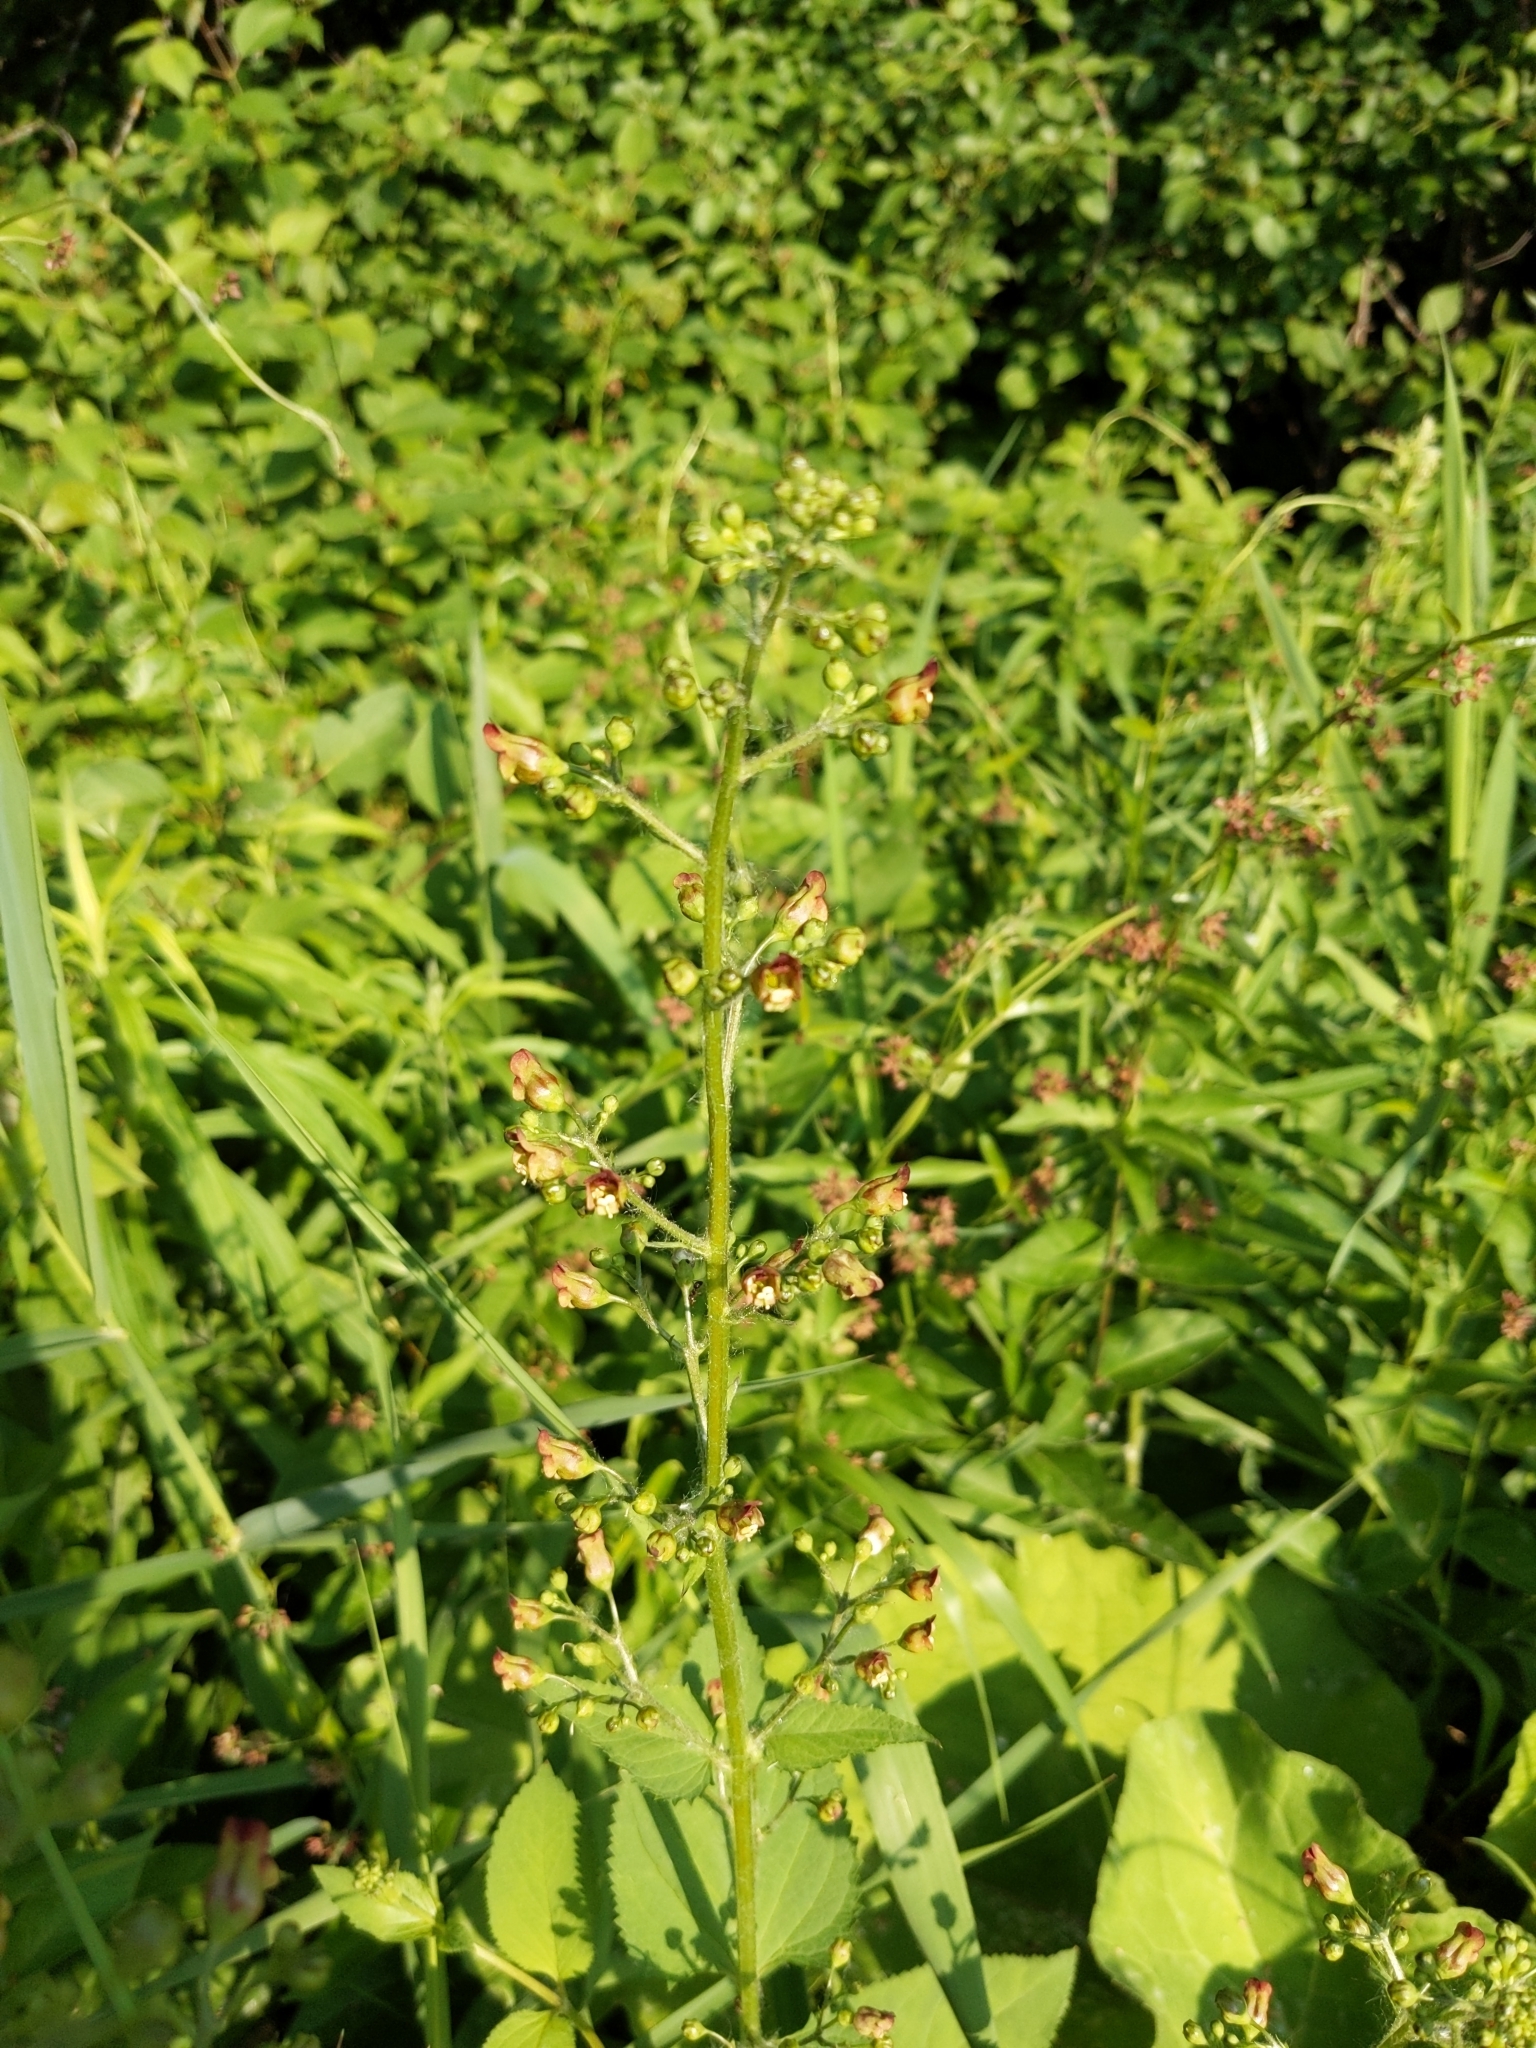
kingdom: Plantae
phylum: Tracheophyta
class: Magnoliopsida
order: Lamiales
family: Scrophulariaceae
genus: Scrophularia
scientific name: Scrophularia nodosa
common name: Common figwort
